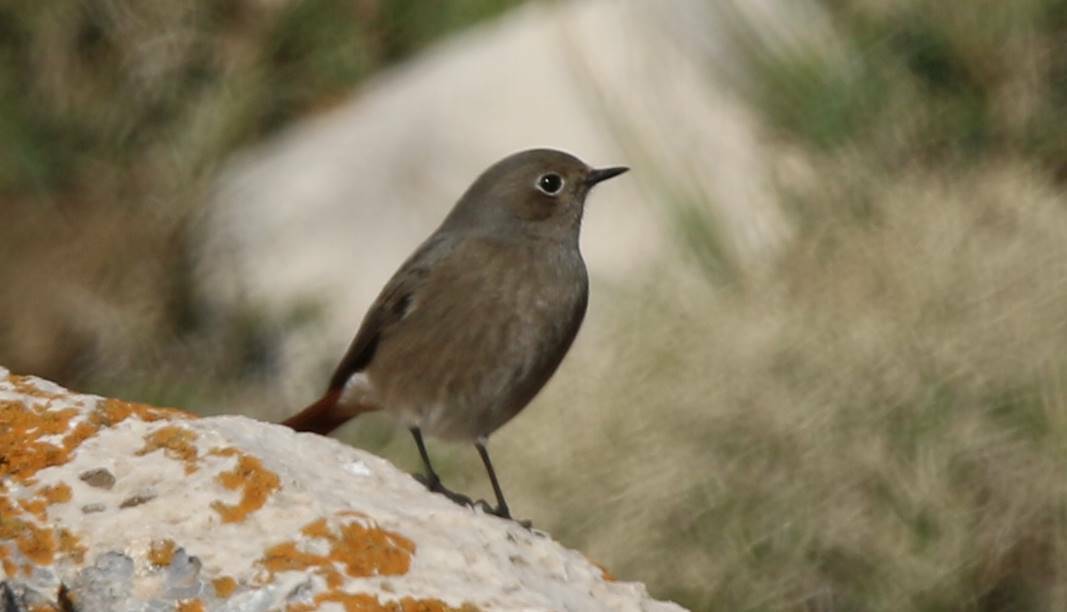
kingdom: Animalia
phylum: Chordata
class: Aves
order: Passeriformes
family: Muscicapidae
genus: Phoenicurus
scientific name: Phoenicurus ochruros
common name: Black redstart
